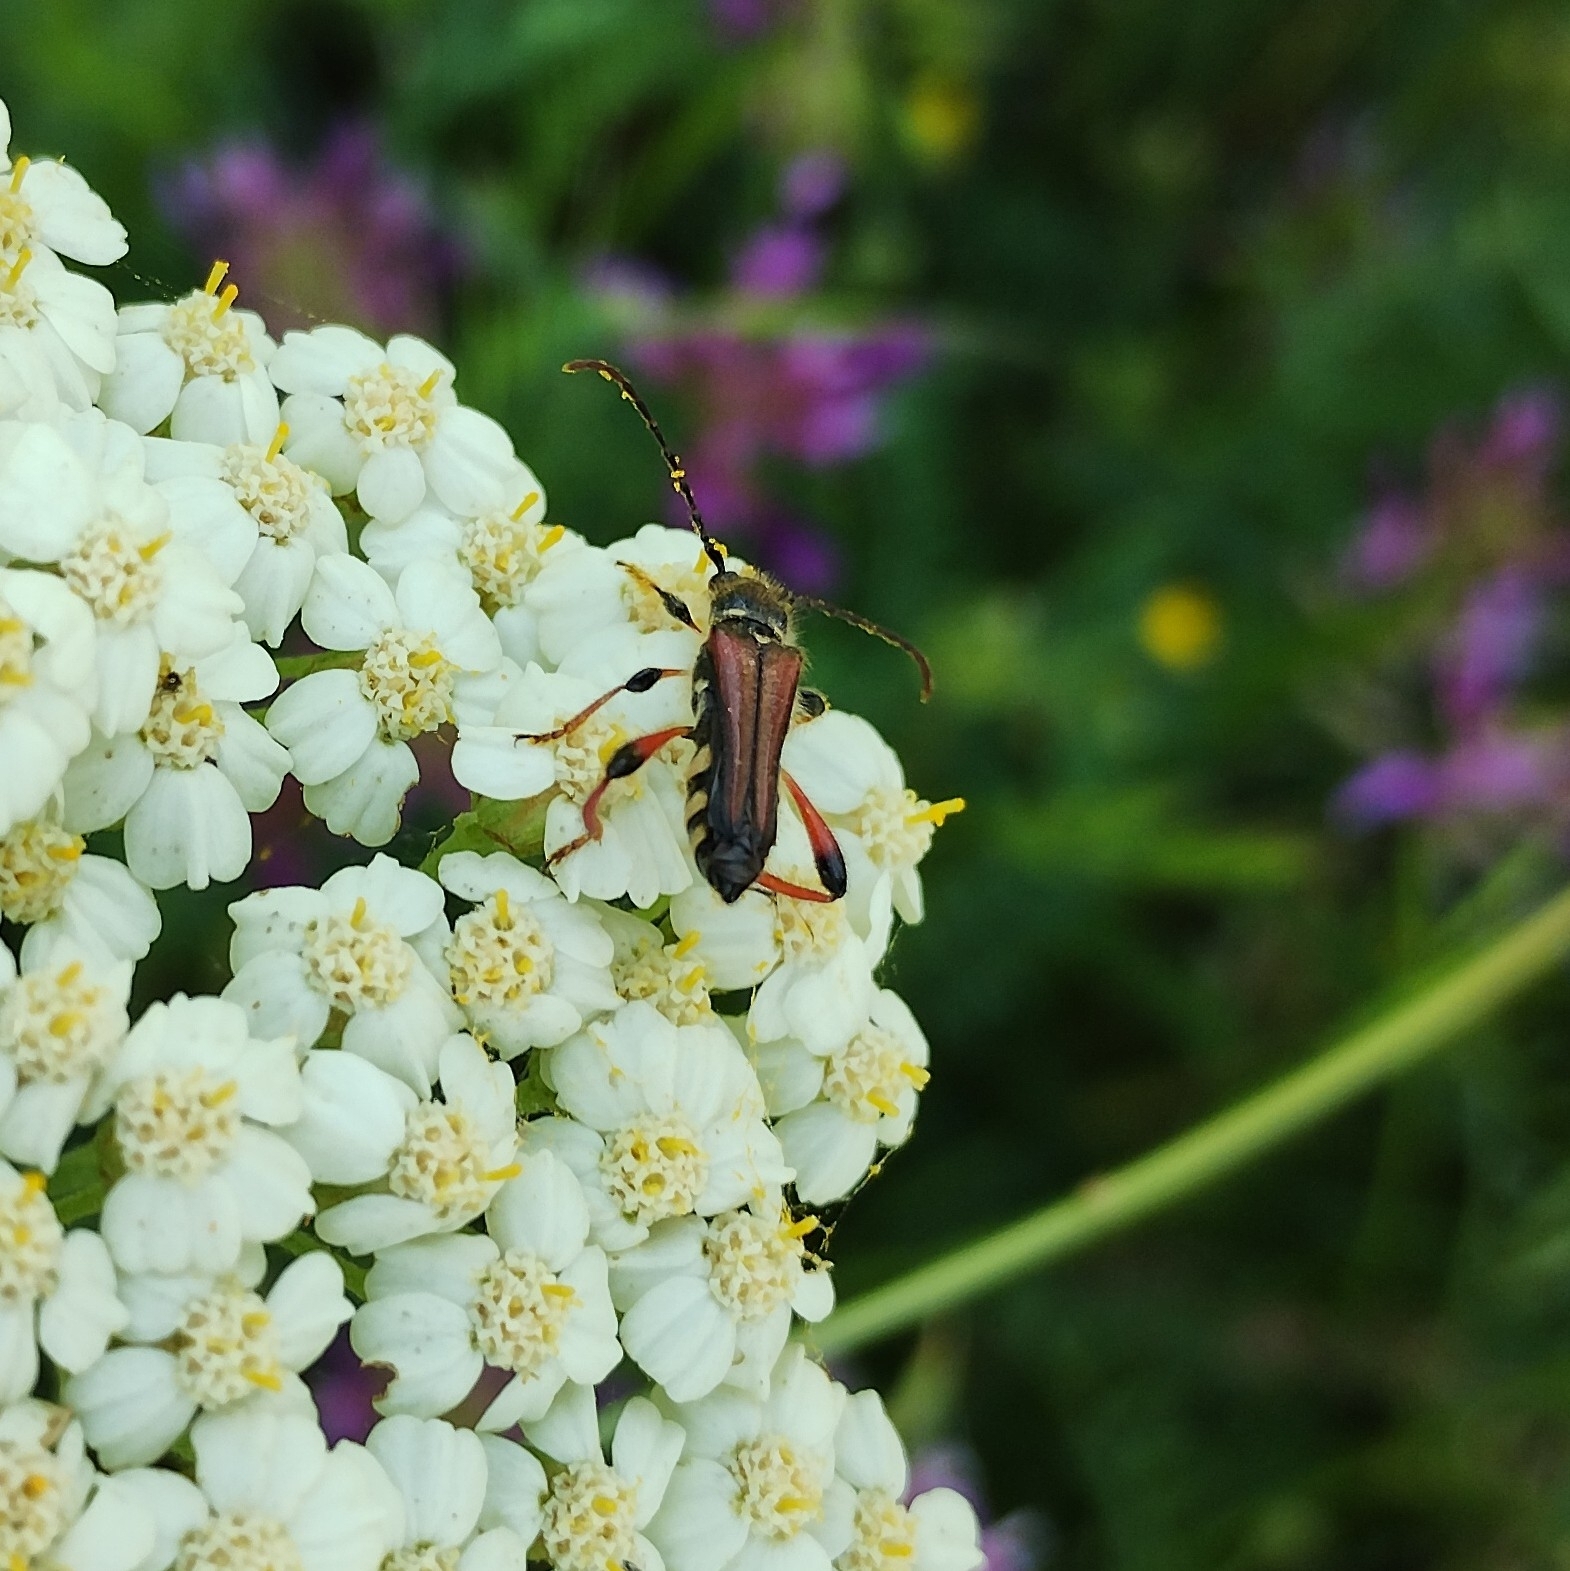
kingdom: Animalia
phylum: Arthropoda
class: Insecta
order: Coleoptera
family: Cerambycidae
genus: Stenopterus
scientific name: Stenopterus rufus
